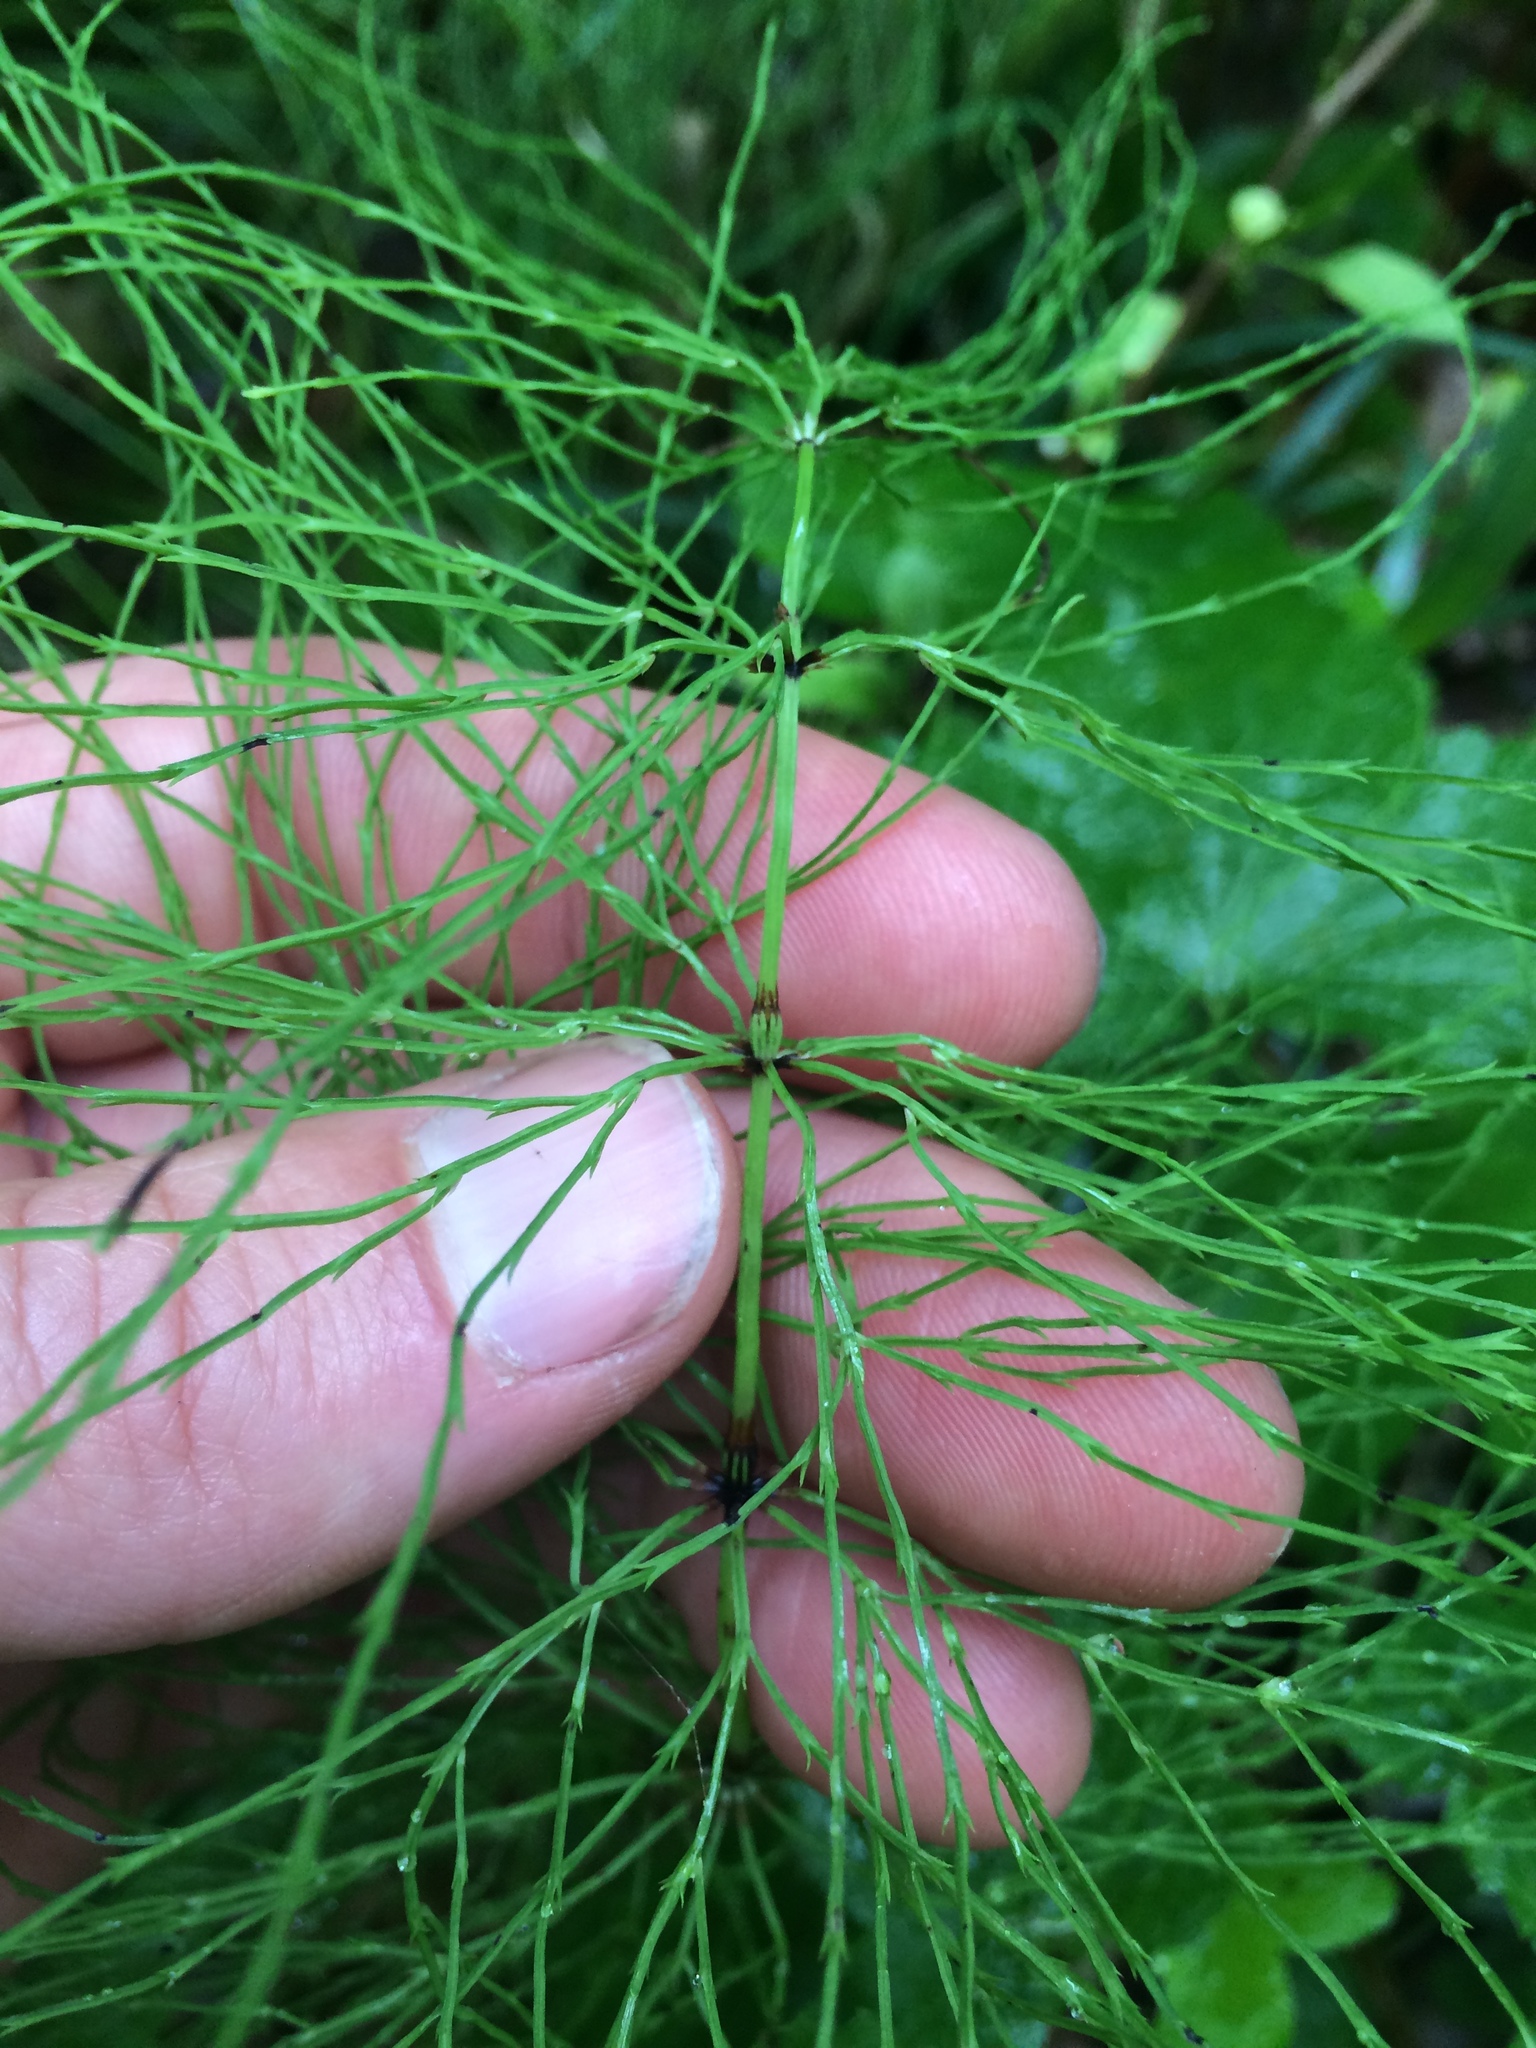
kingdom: Plantae
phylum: Tracheophyta
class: Polypodiopsida
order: Equisetales
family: Equisetaceae
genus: Equisetum
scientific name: Equisetum sylvaticum
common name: Wood horsetail
